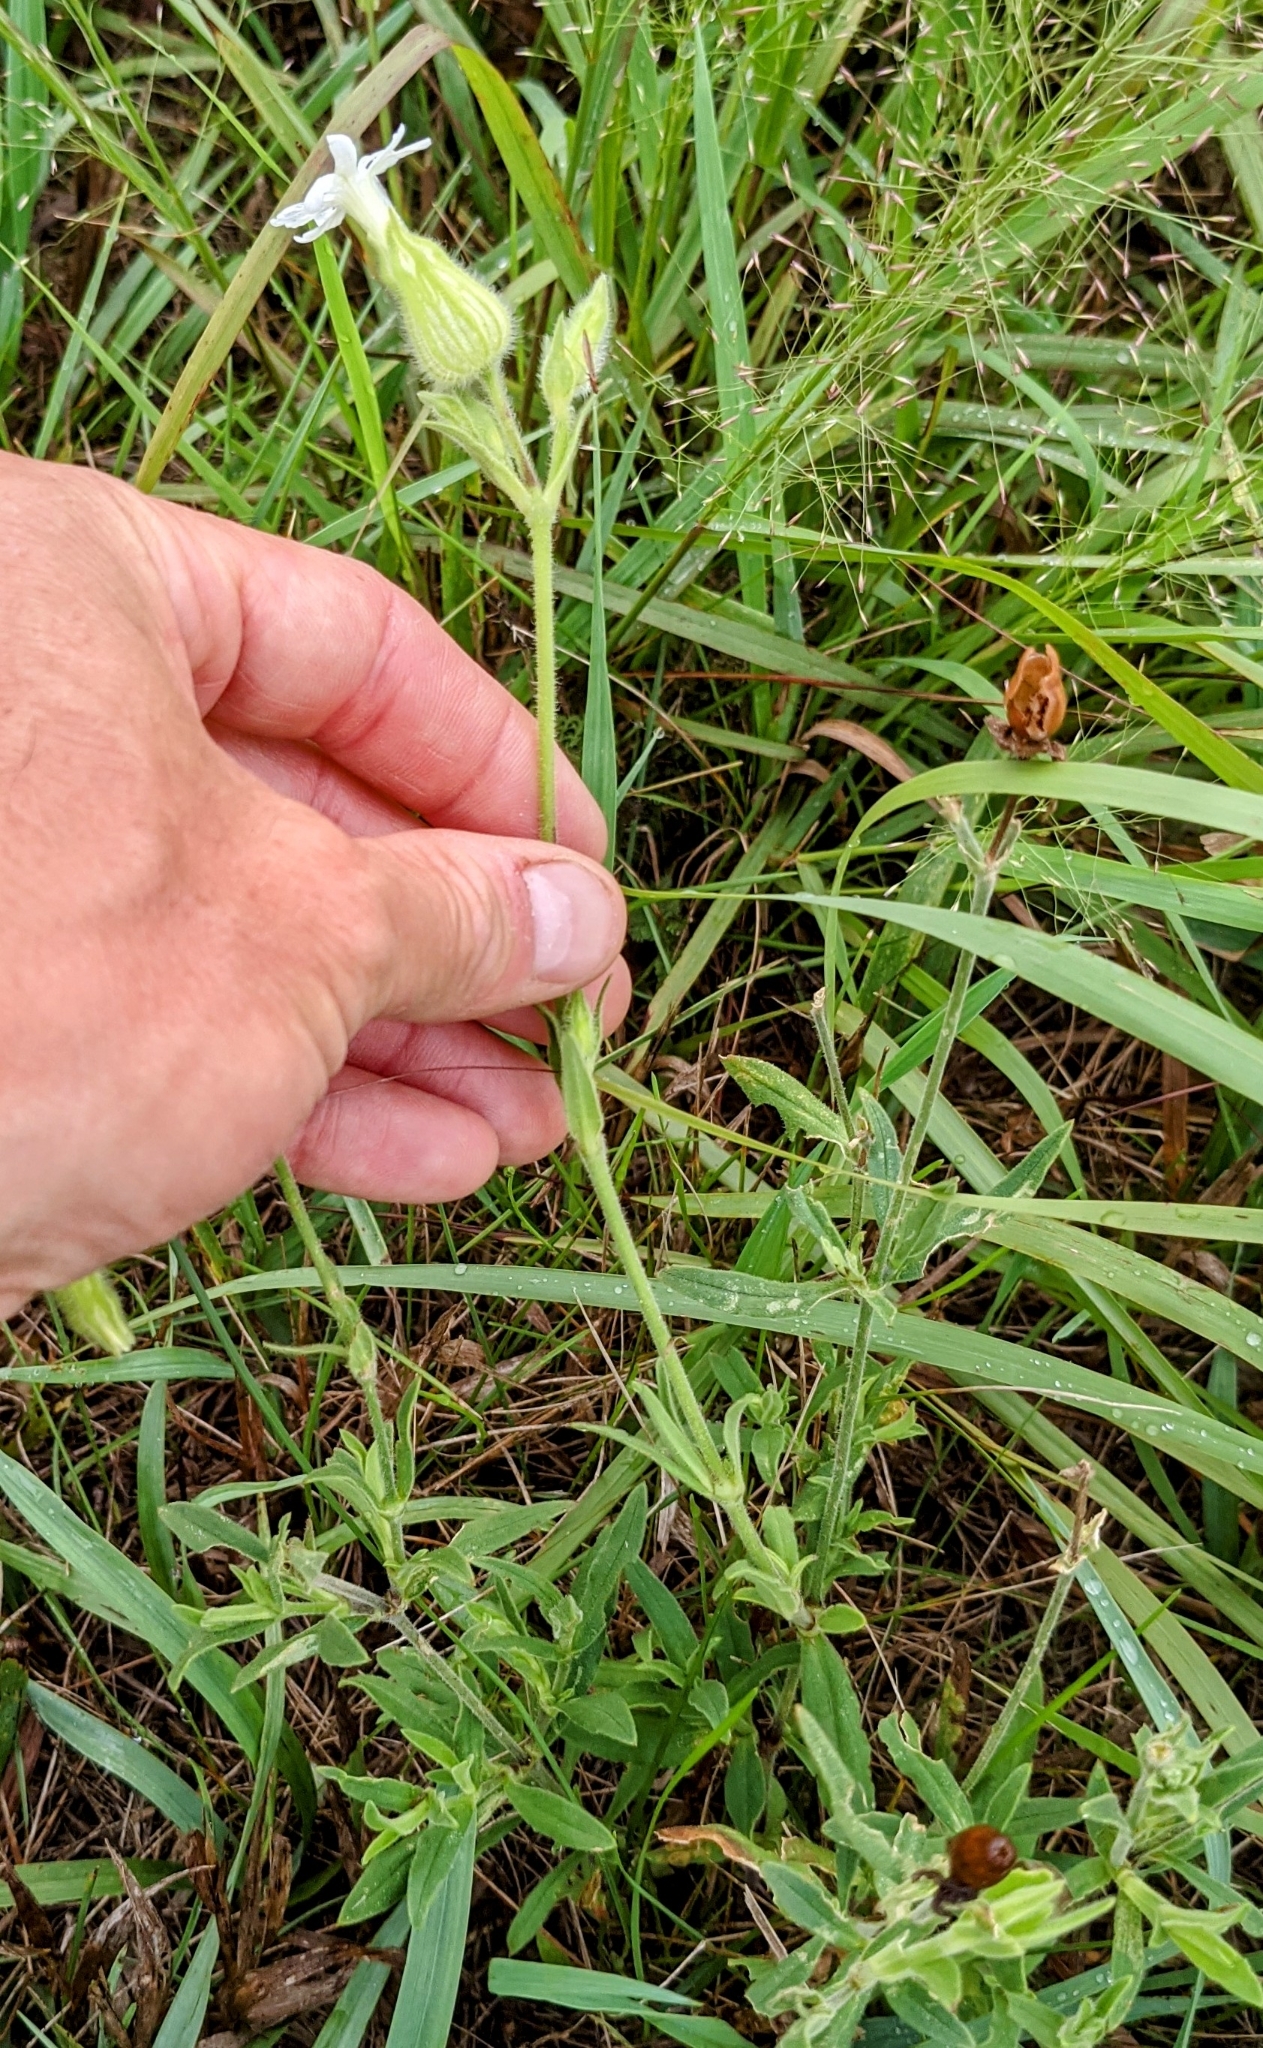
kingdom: Plantae
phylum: Tracheophyta
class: Magnoliopsida
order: Caryophyllales
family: Caryophyllaceae
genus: Silene
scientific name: Silene latifolia
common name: White campion
